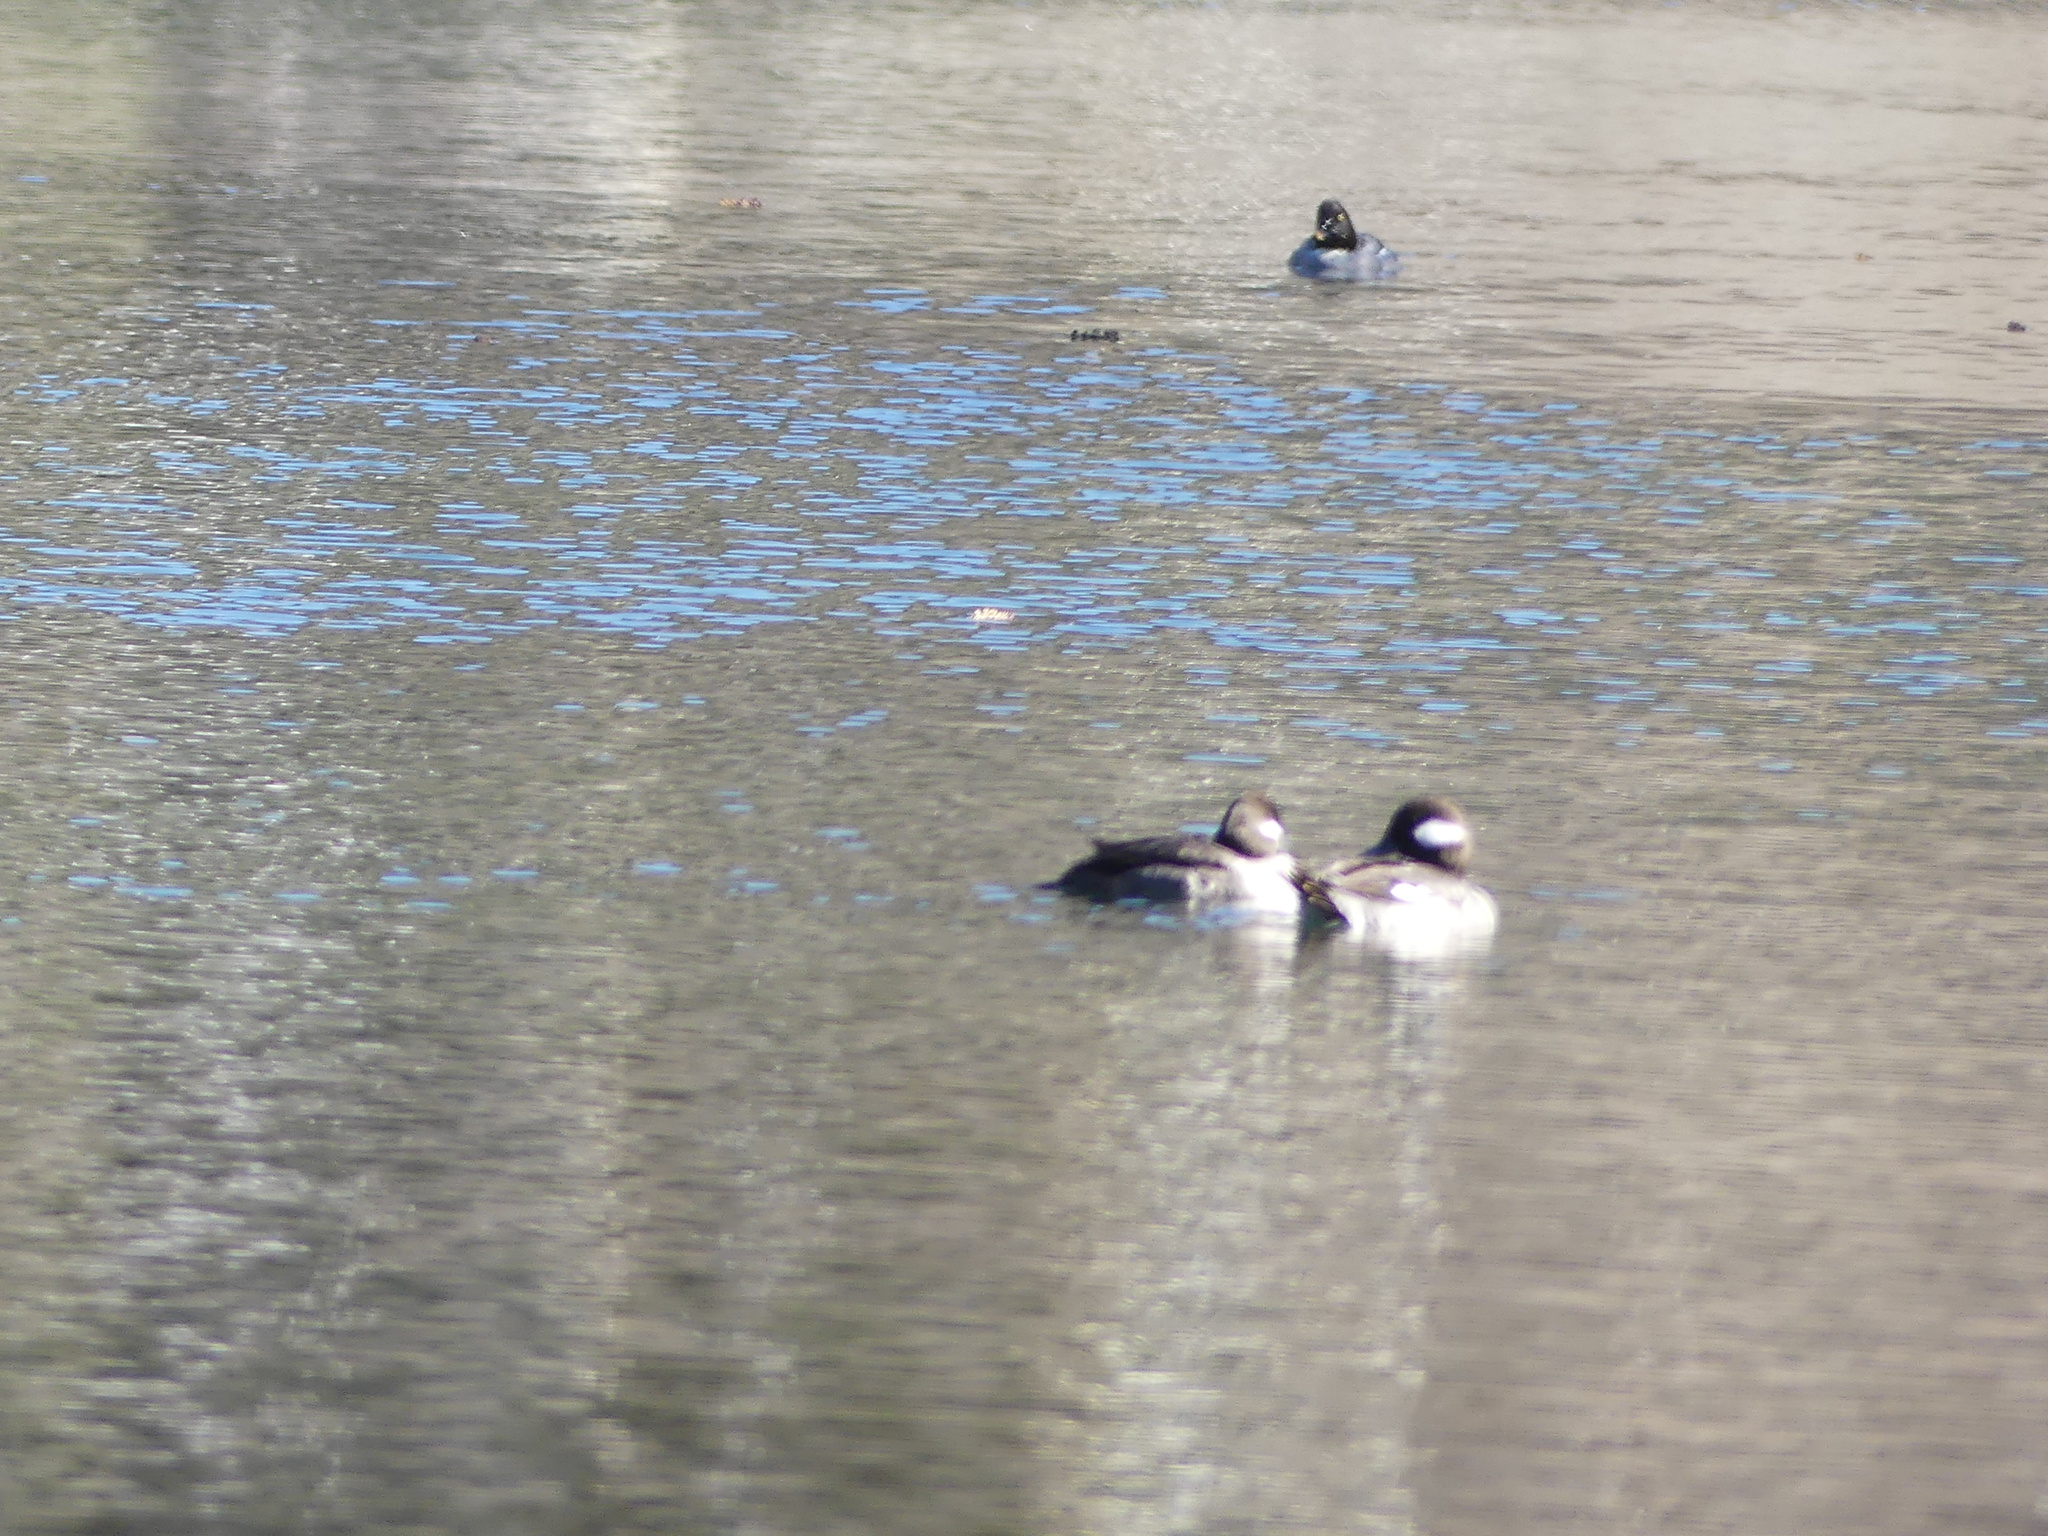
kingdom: Animalia
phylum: Chordata
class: Aves
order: Anseriformes
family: Anatidae
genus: Bucephala
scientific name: Bucephala albeola
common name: Bufflehead
